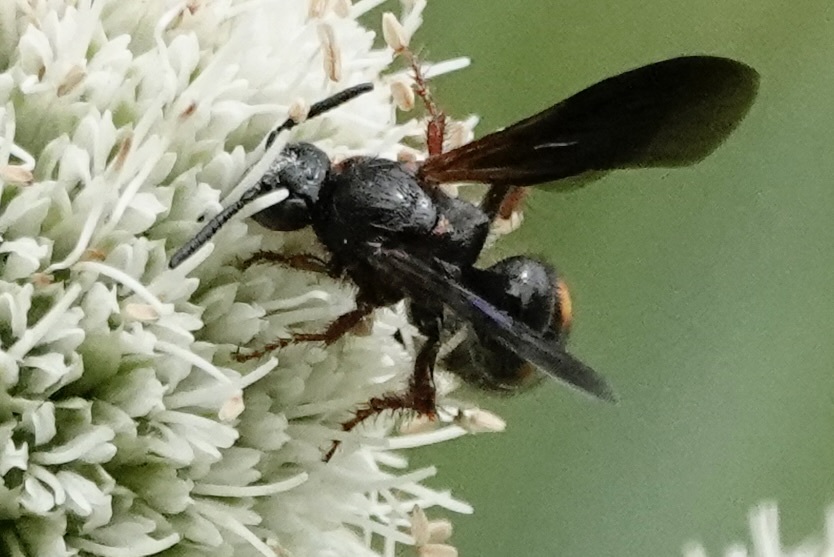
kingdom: Animalia
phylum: Arthropoda
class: Insecta
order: Hymenoptera
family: Scoliidae
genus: Scolia
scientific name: Scolia nobilitata
